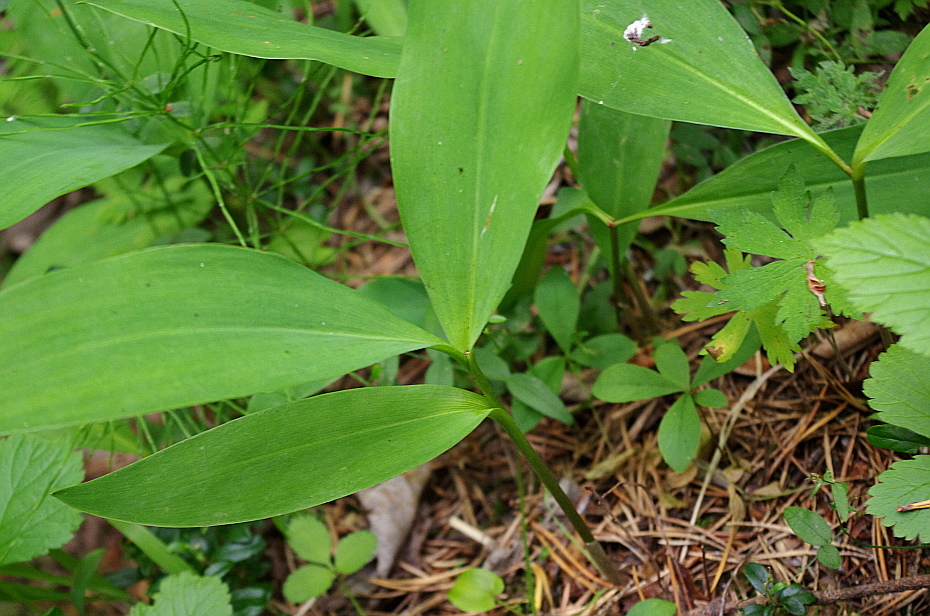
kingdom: Plantae
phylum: Tracheophyta
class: Liliopsida
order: Asparagales
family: Asparagaceae
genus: Convallaria
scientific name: Convallaria majalis
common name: Lily-of-the-valley
